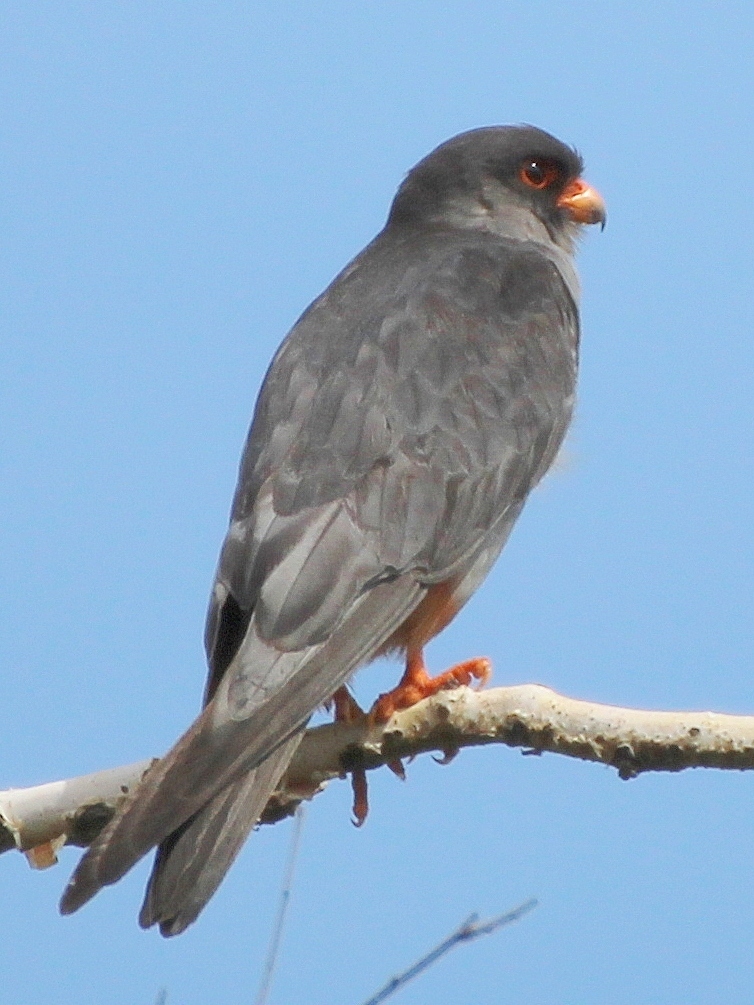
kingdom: Animalia
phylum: Chordata
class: Aves
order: Falconiformes
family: Falconidae
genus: Falco
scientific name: Falco amurensis
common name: Amur falcon
